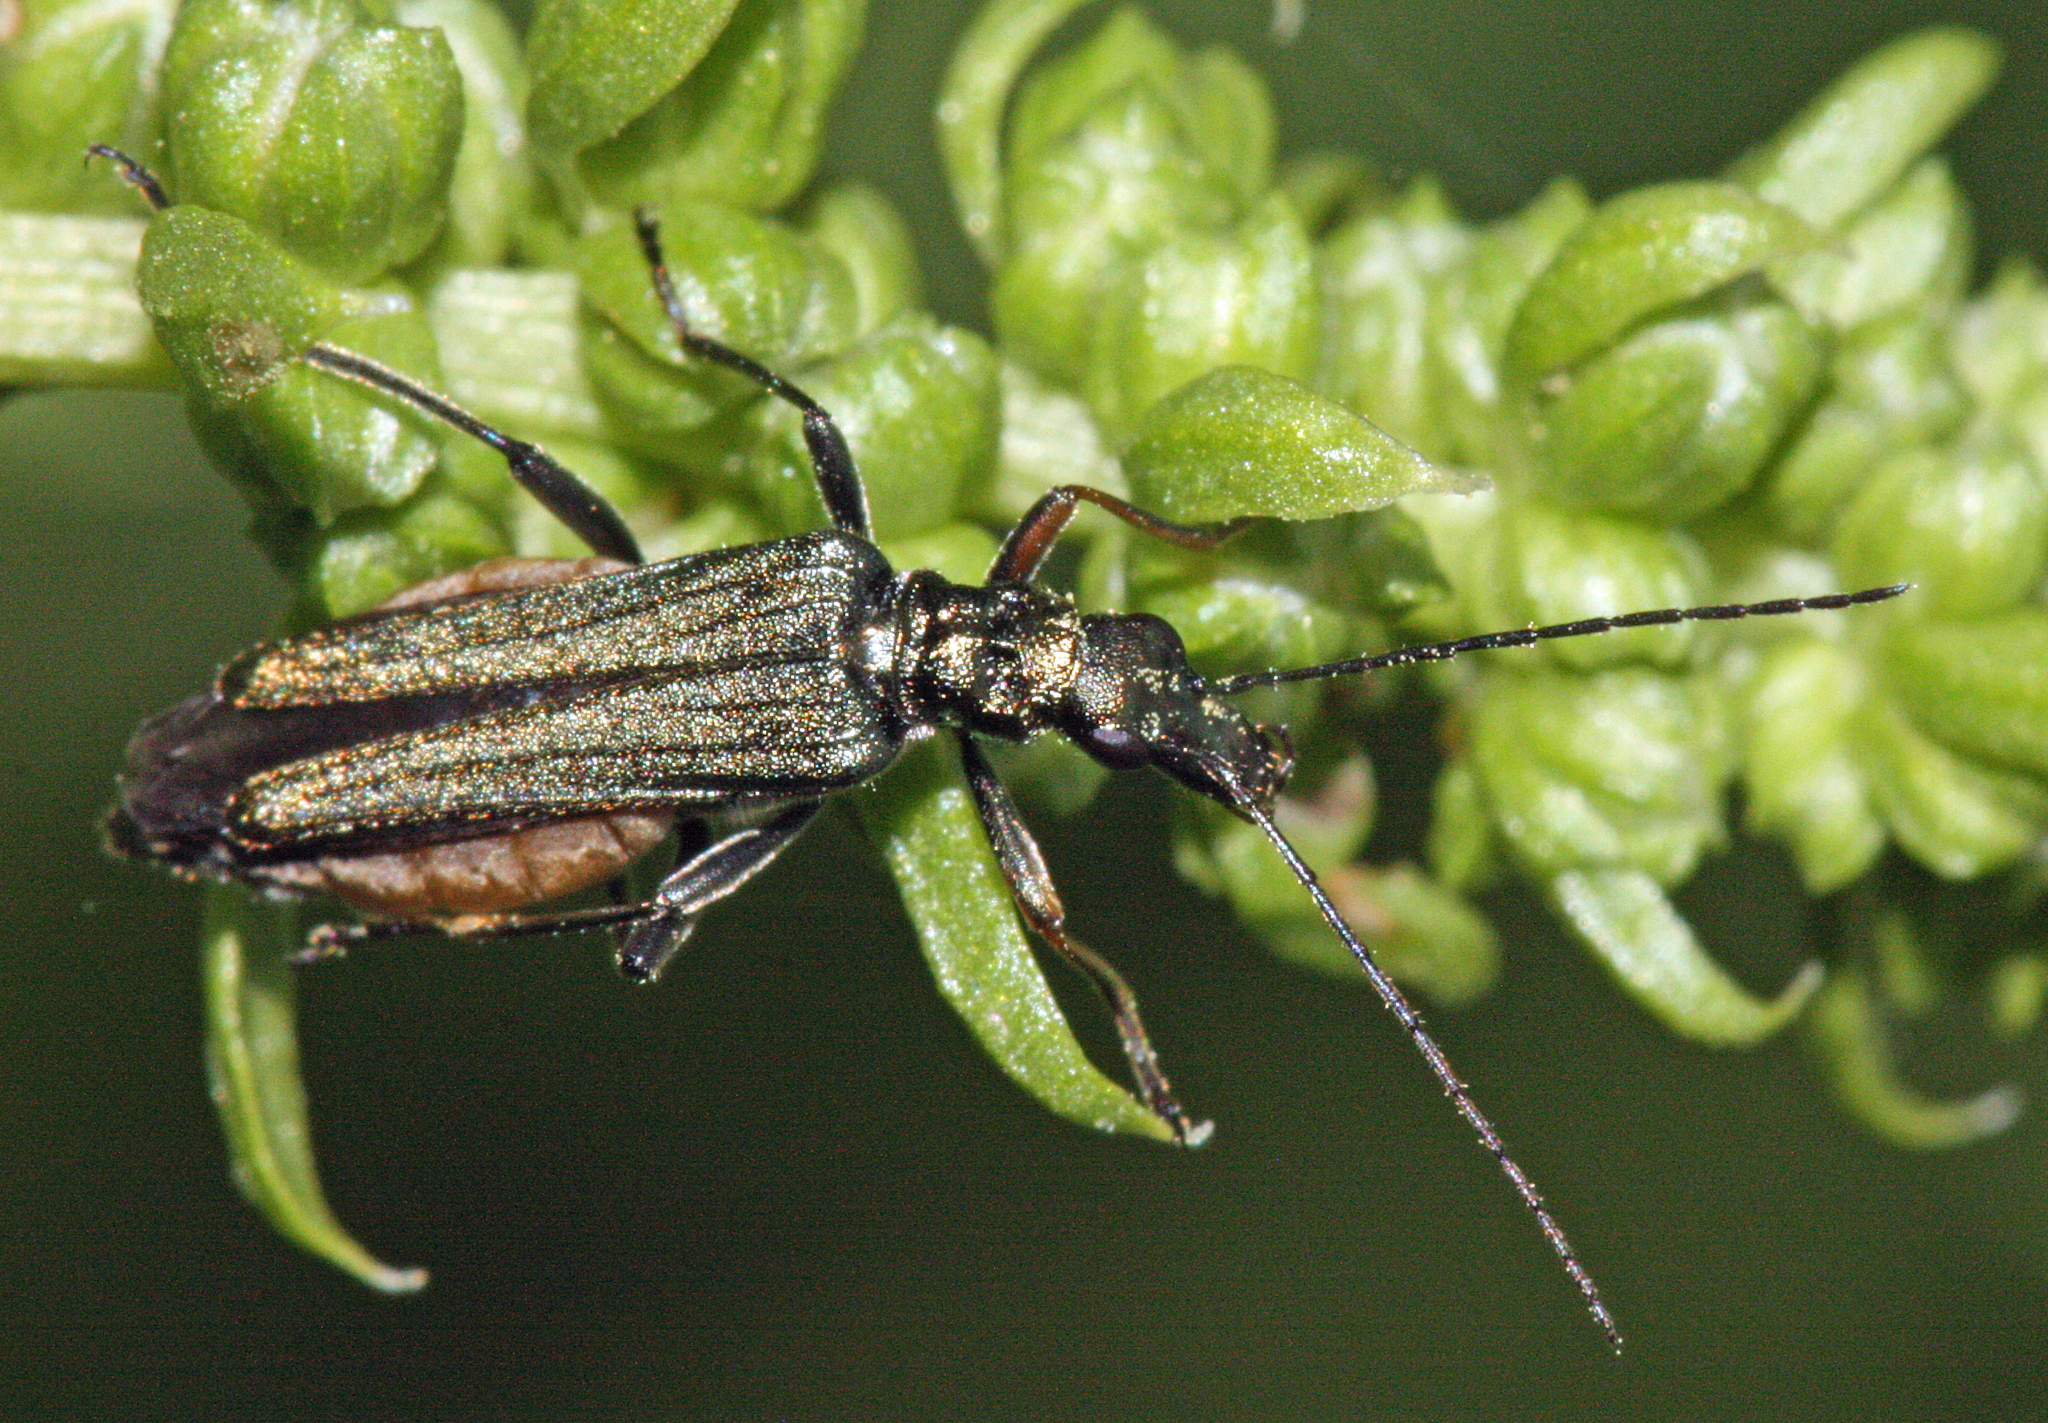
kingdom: Animalia
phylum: Arthropoda
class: Insecta
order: Coleoptera
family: Oedemeridae
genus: Oedemera
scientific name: Oedemera flavipes
